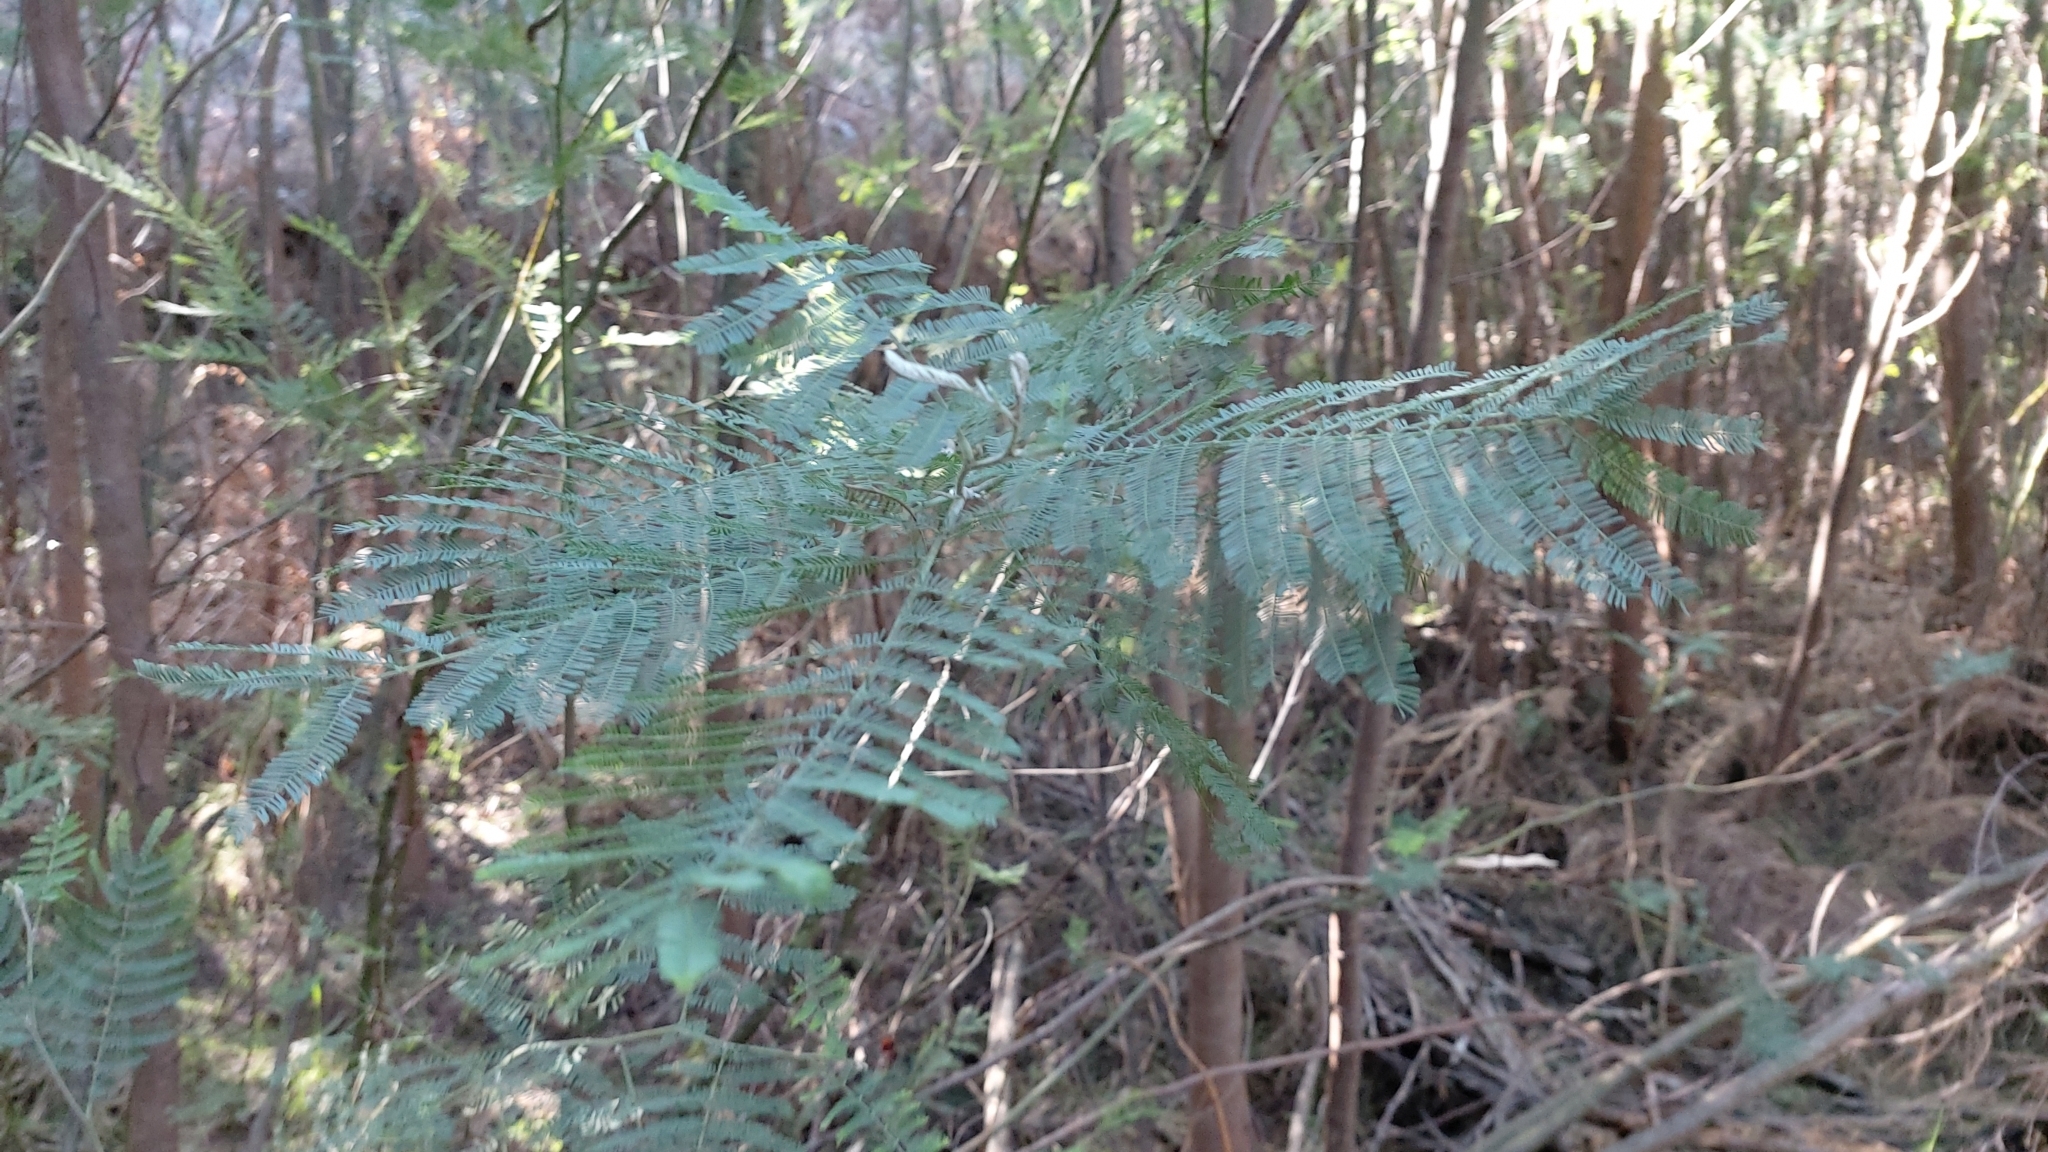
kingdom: Plantae
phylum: Tracheophyta
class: Magnoliopsida
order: Fabales
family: Fabaceae
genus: Acacia
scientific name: Acacia dealbata
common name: Silver wattle
